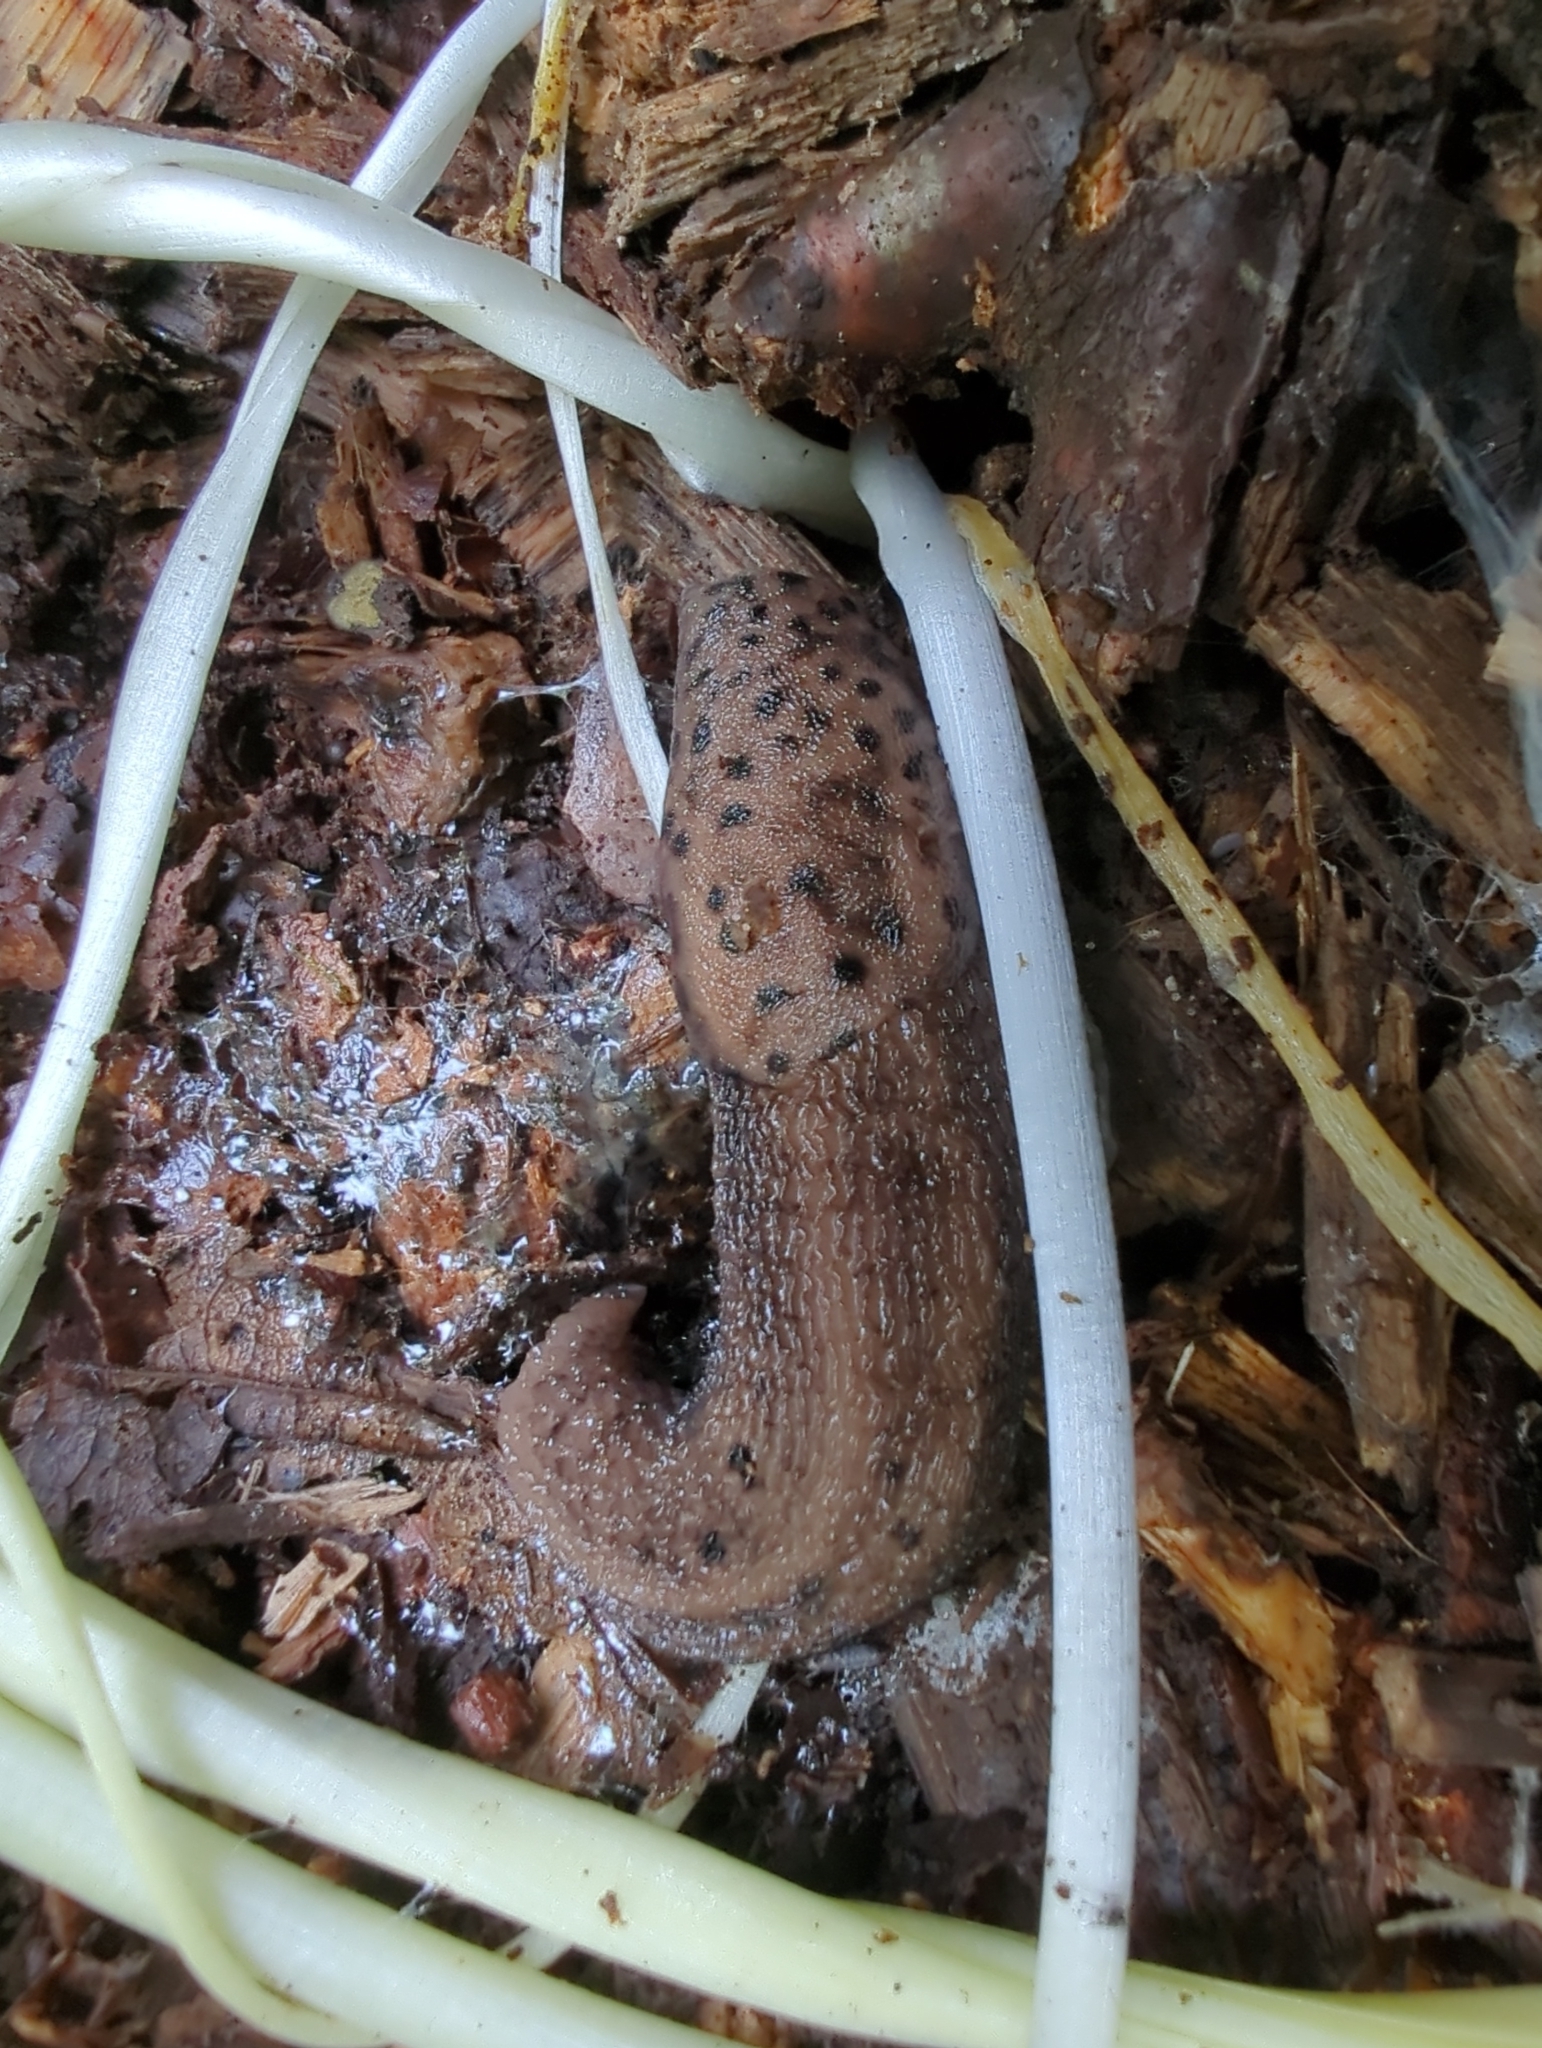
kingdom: Animalia
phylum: Mollusca
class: Gastropoda
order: Stylommatophora
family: Limacidae
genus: Limax
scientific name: Limax maximus
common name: Great grey slug
